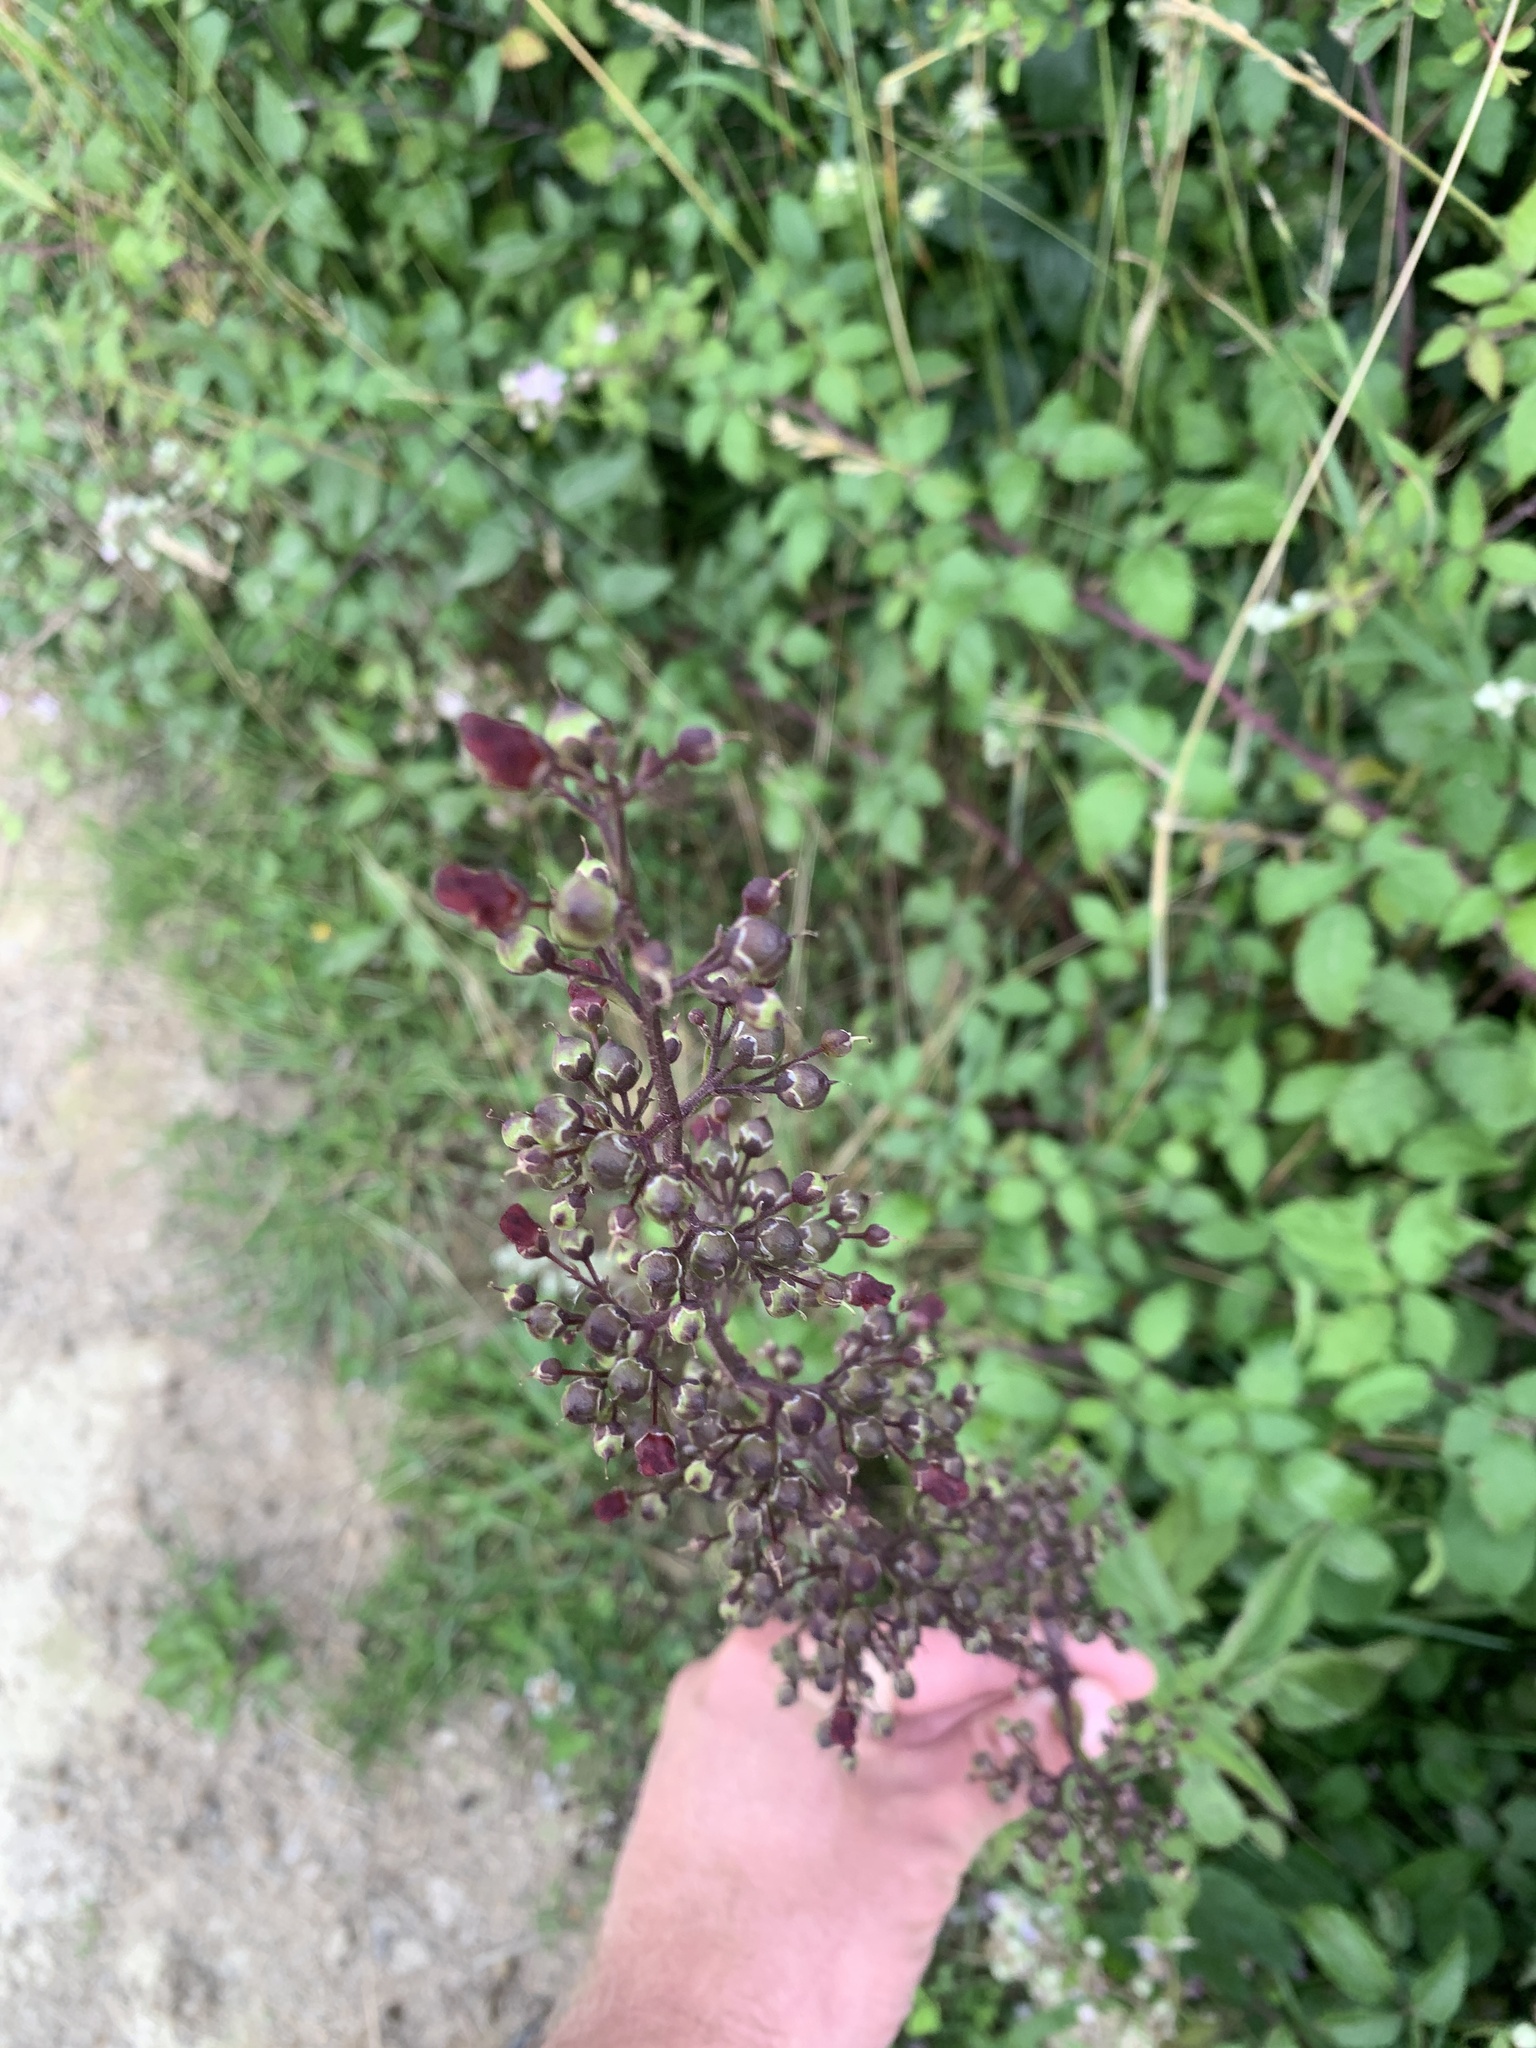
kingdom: Plantae
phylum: Tracheophyta
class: Magnoliopsida
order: Lamiales
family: Scrophulariaceae
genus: Scrophularia
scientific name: Scrophularia nodosa
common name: Common figwort
